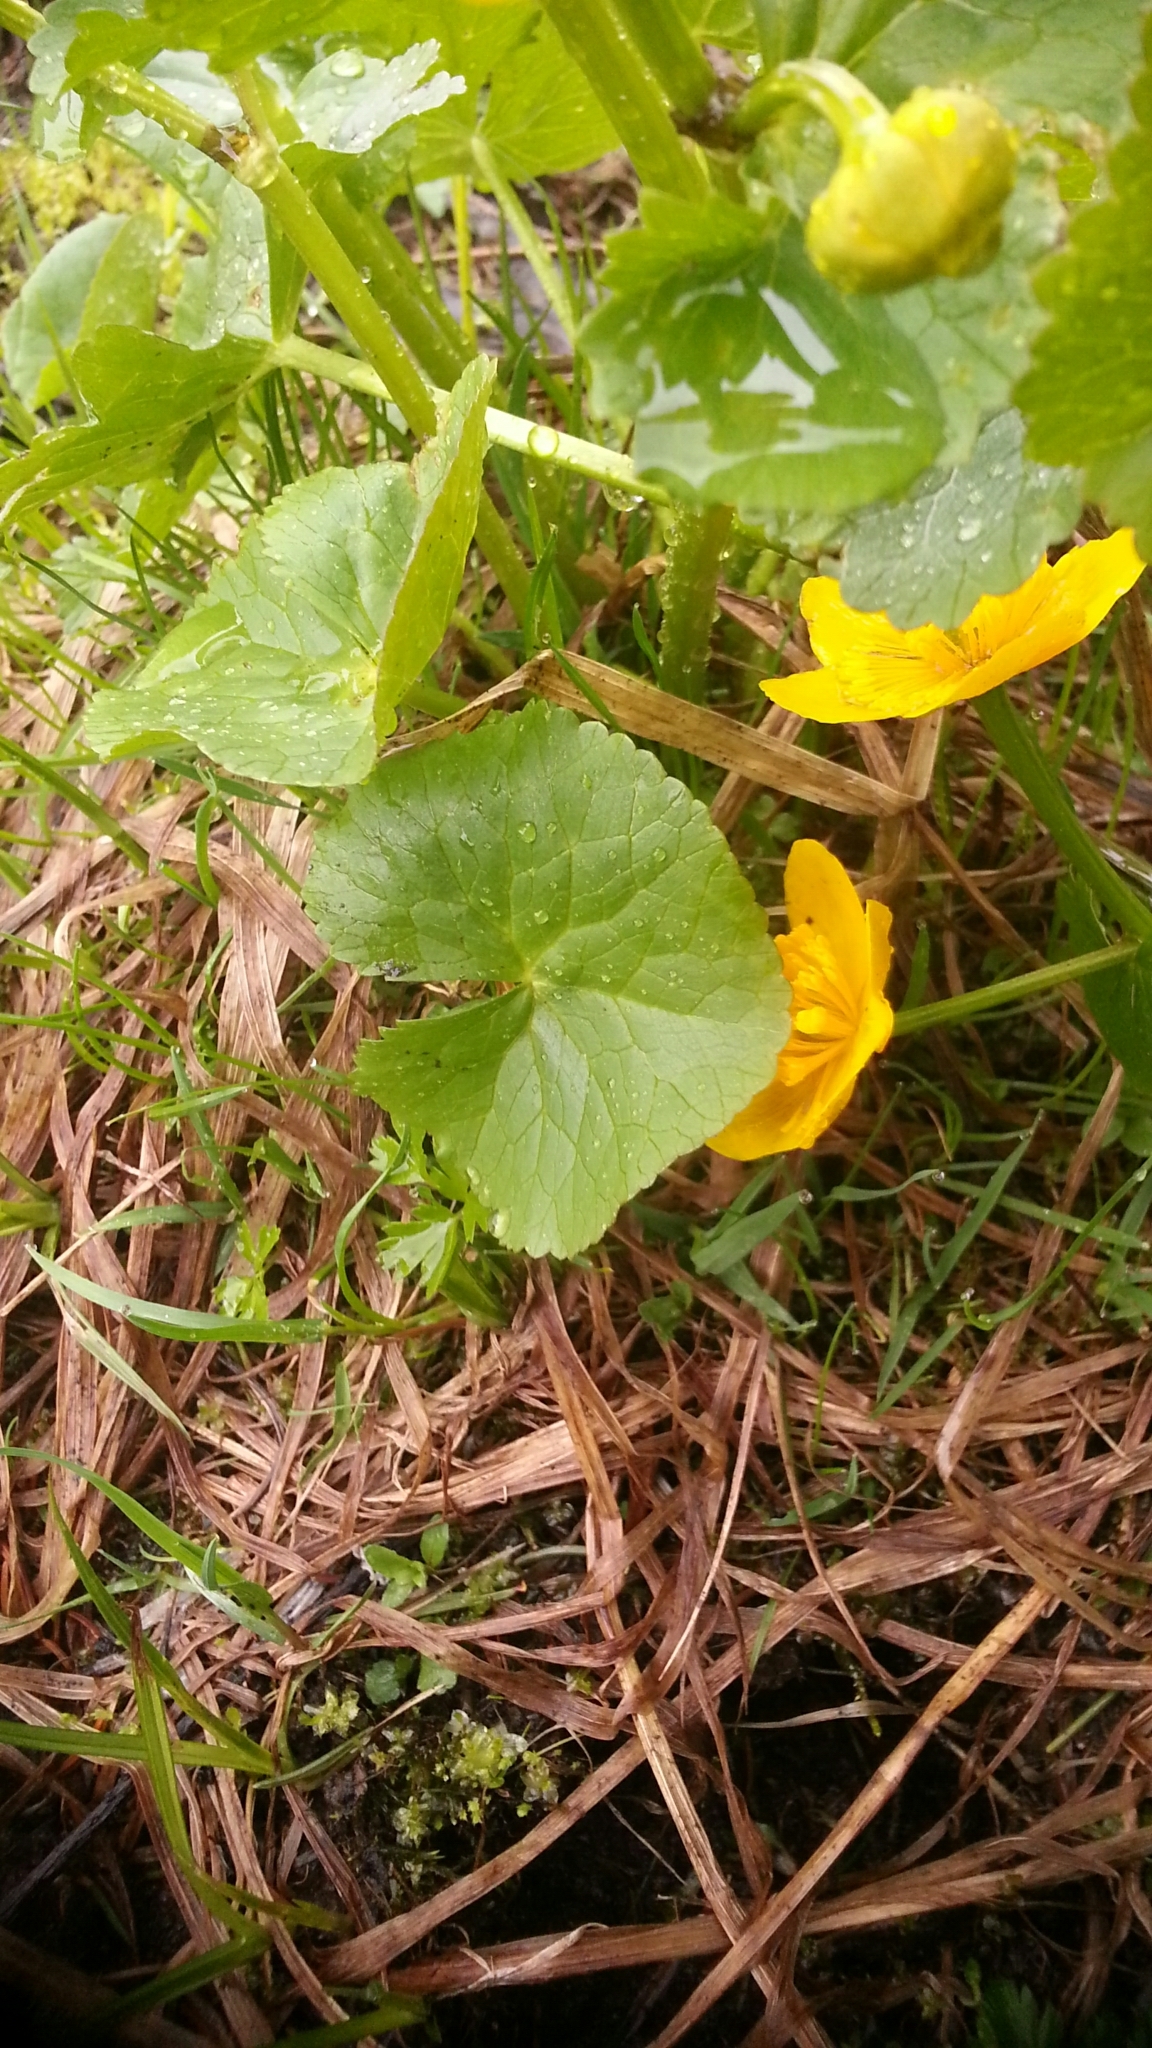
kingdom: Plantae
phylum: Tracheophyta
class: Magnoliopsida
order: Ranunculales
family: Ranunculaceae
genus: Caltha
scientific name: Caltha palustris
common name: Marsh marigold
